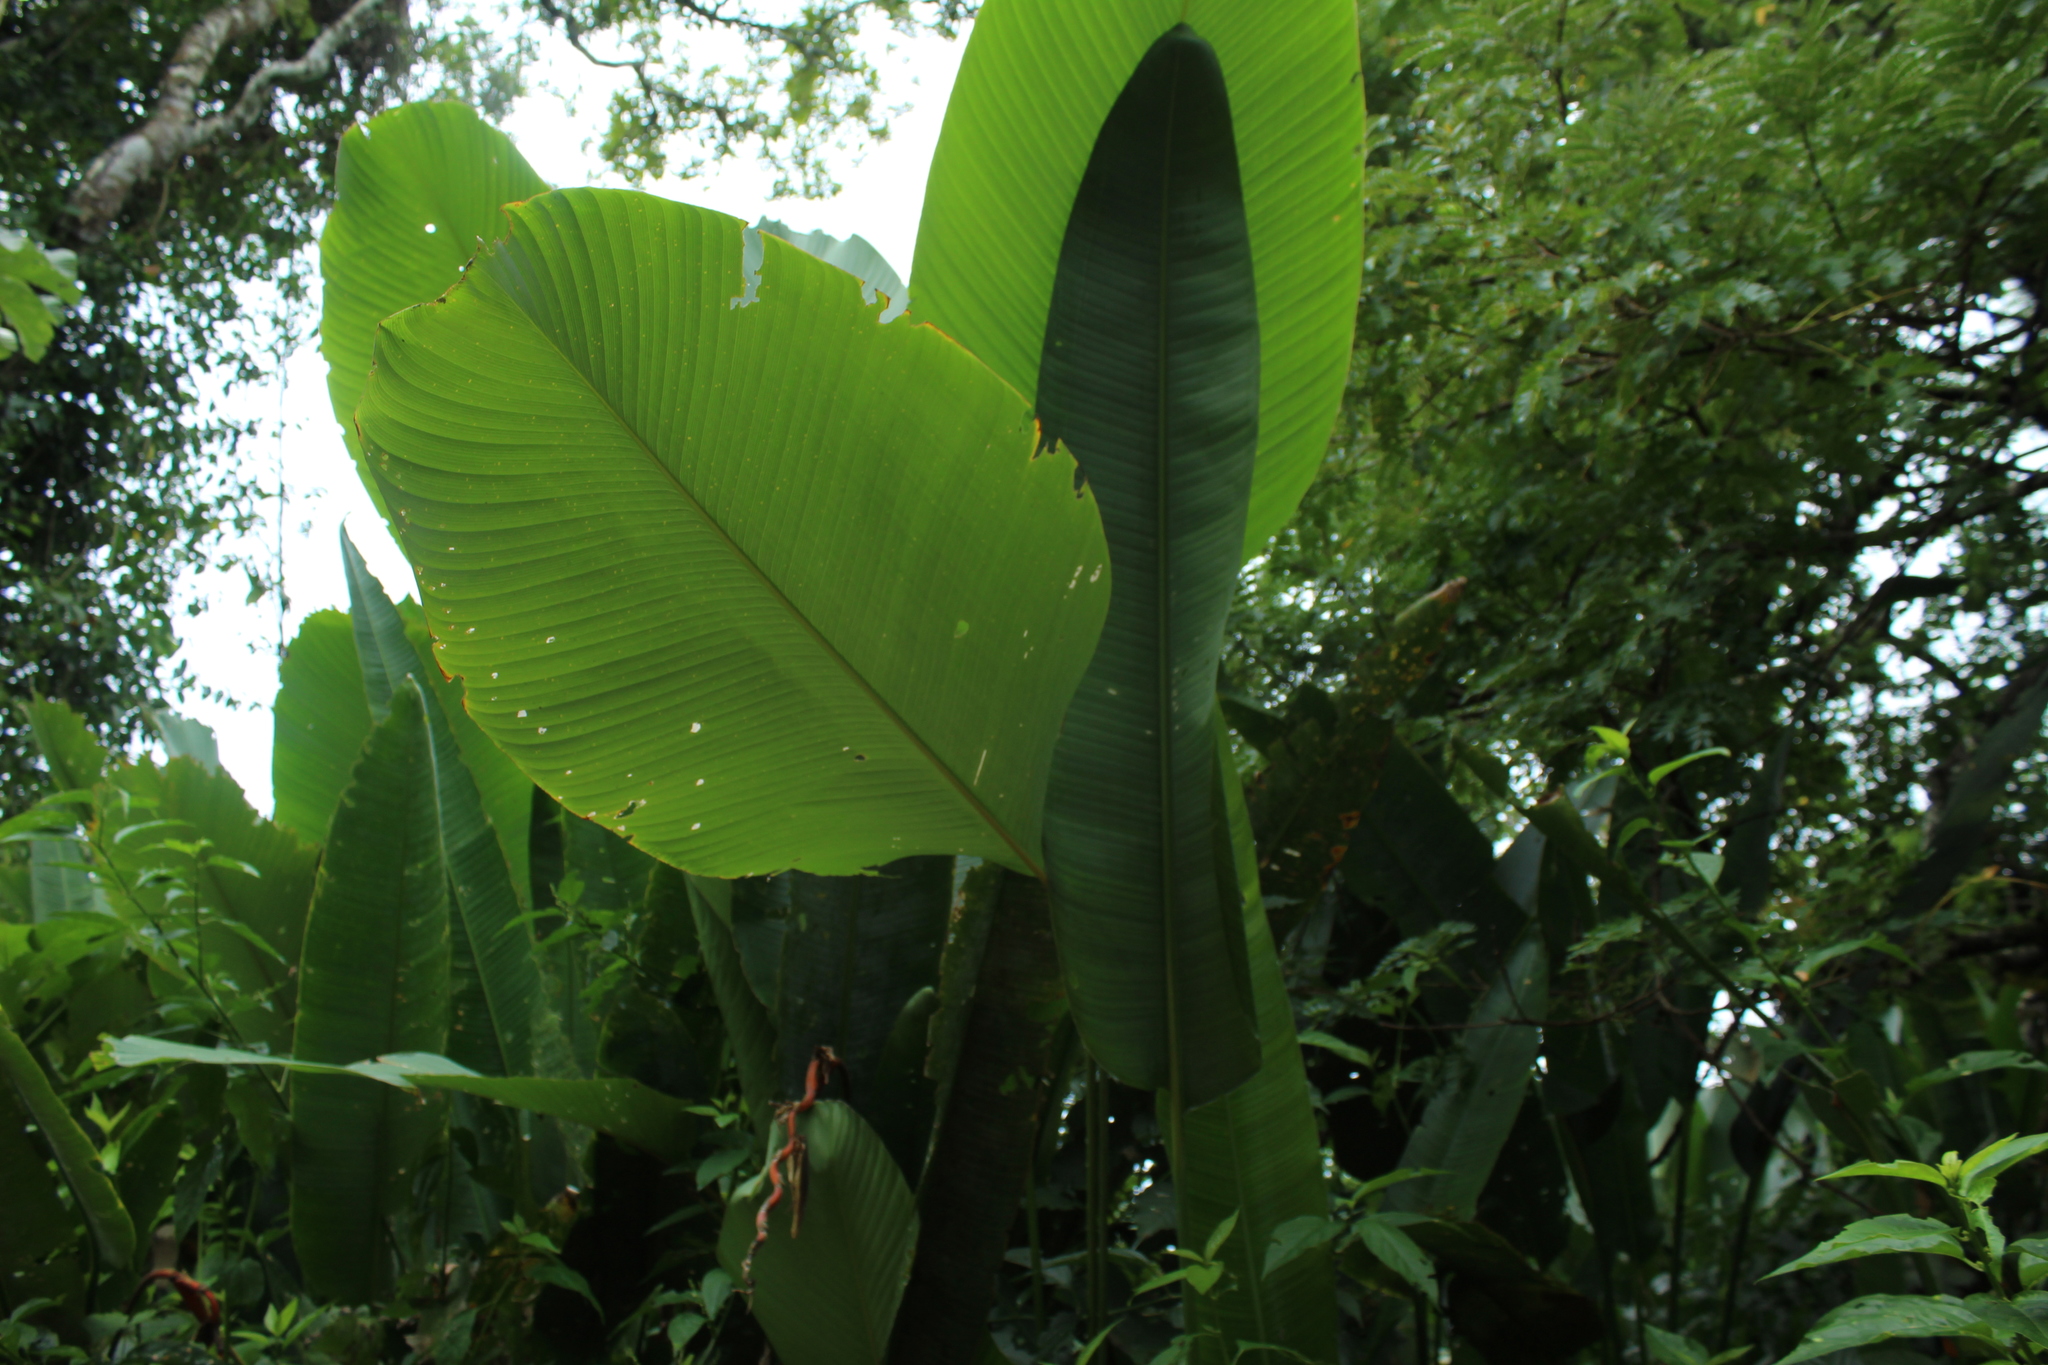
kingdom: Plantae
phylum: Tracheophyta
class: Liliopsida
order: Zingiberales
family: Marantaceae
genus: Calathea
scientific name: Calathea lutea
